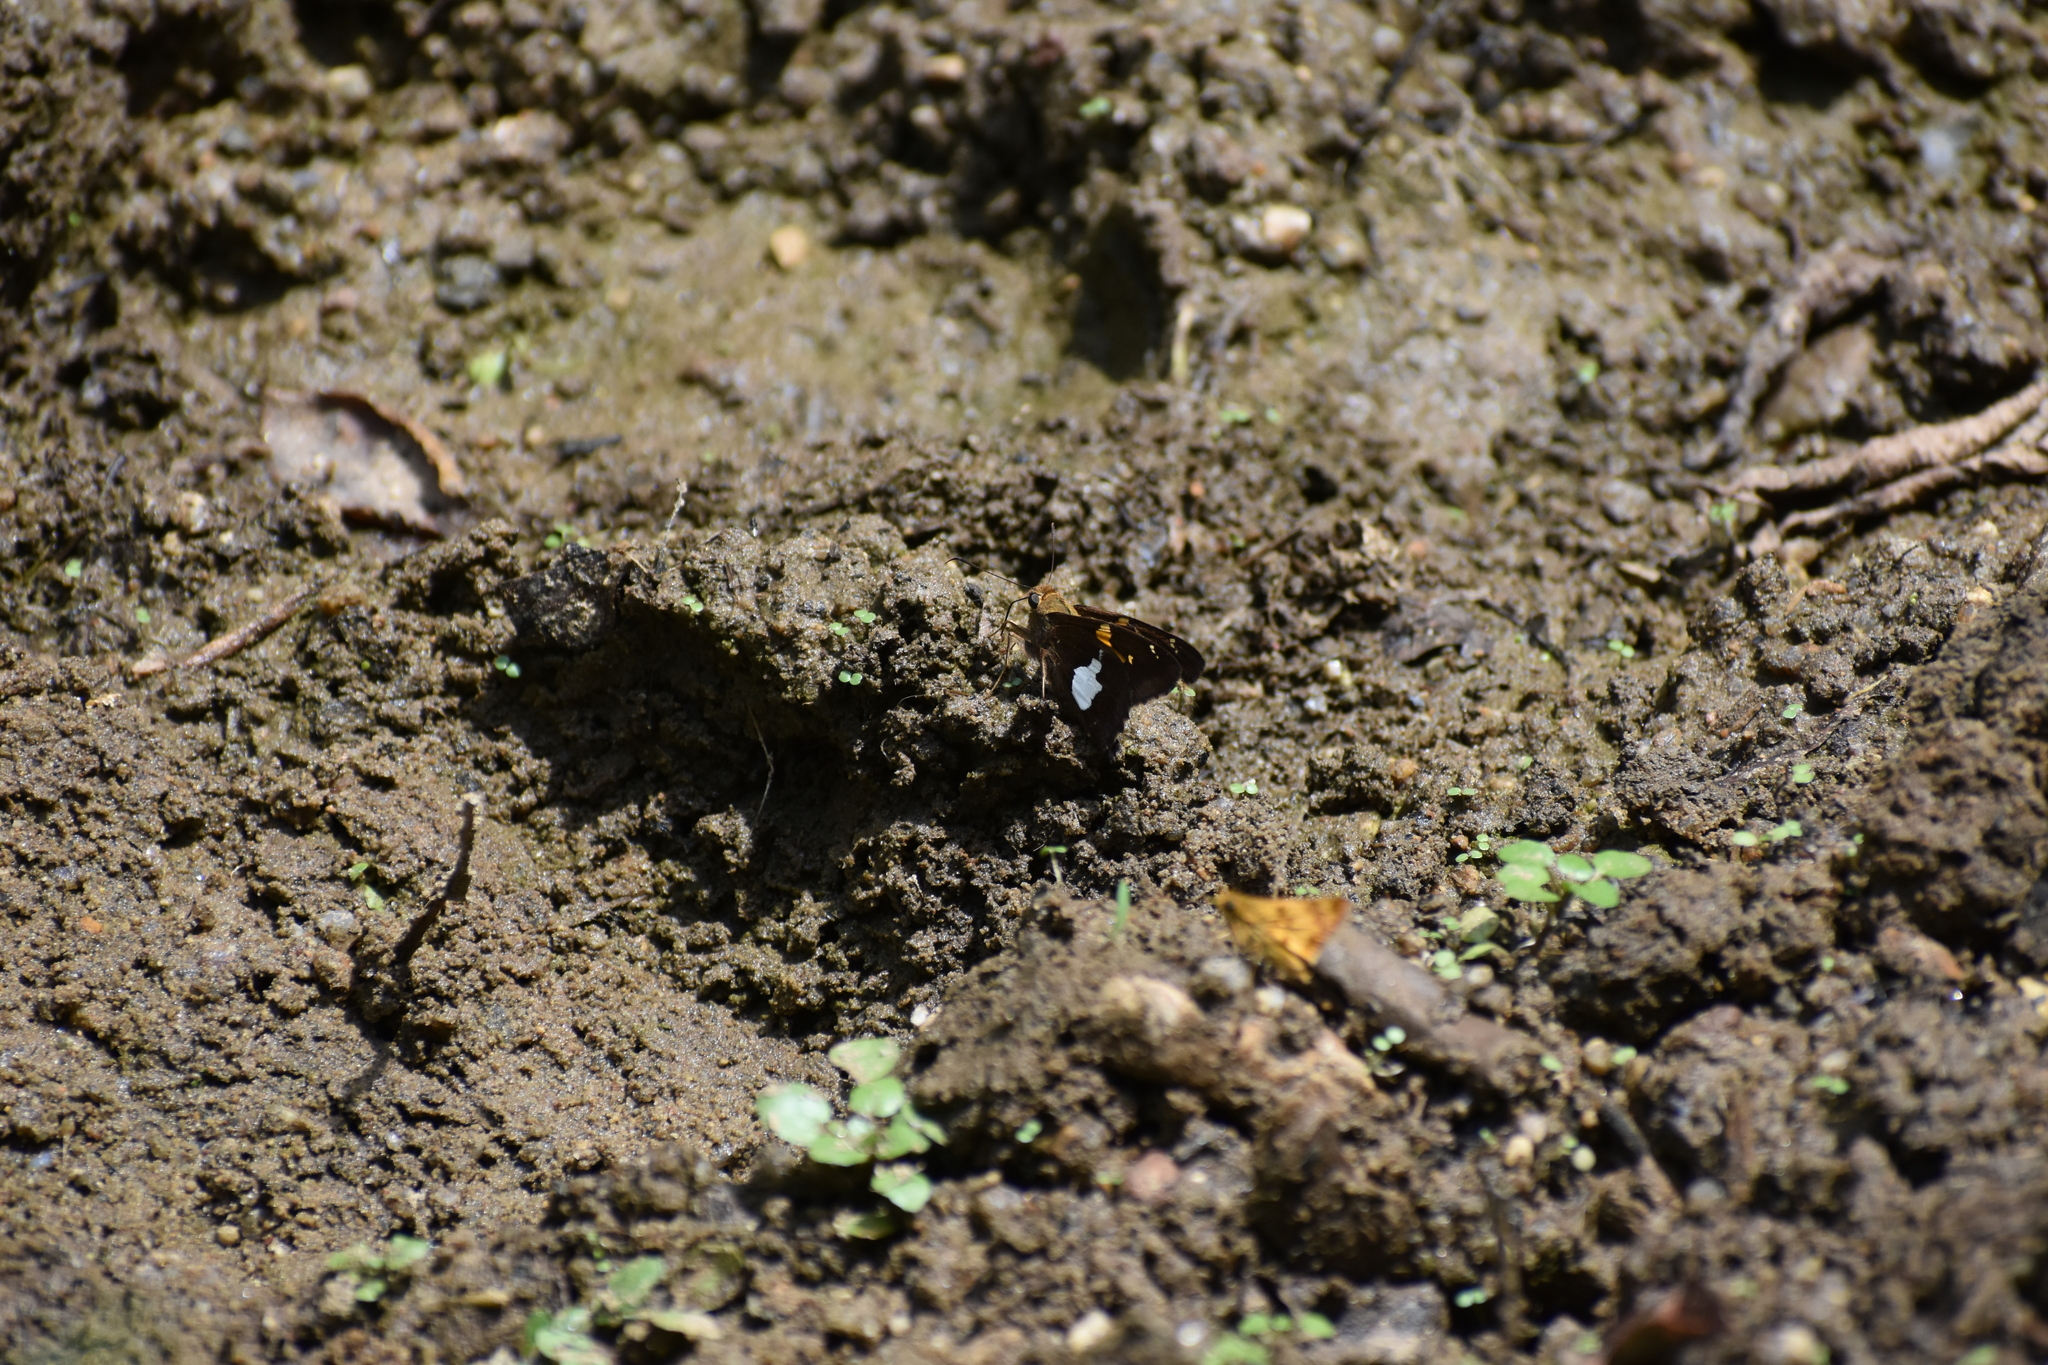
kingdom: Animalia
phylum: Arthropoda
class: Insecta
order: Lepidoptera
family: Hesperiidae
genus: Epargyreus
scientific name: Epargyreus clarus
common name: Silver-spotted skipper
